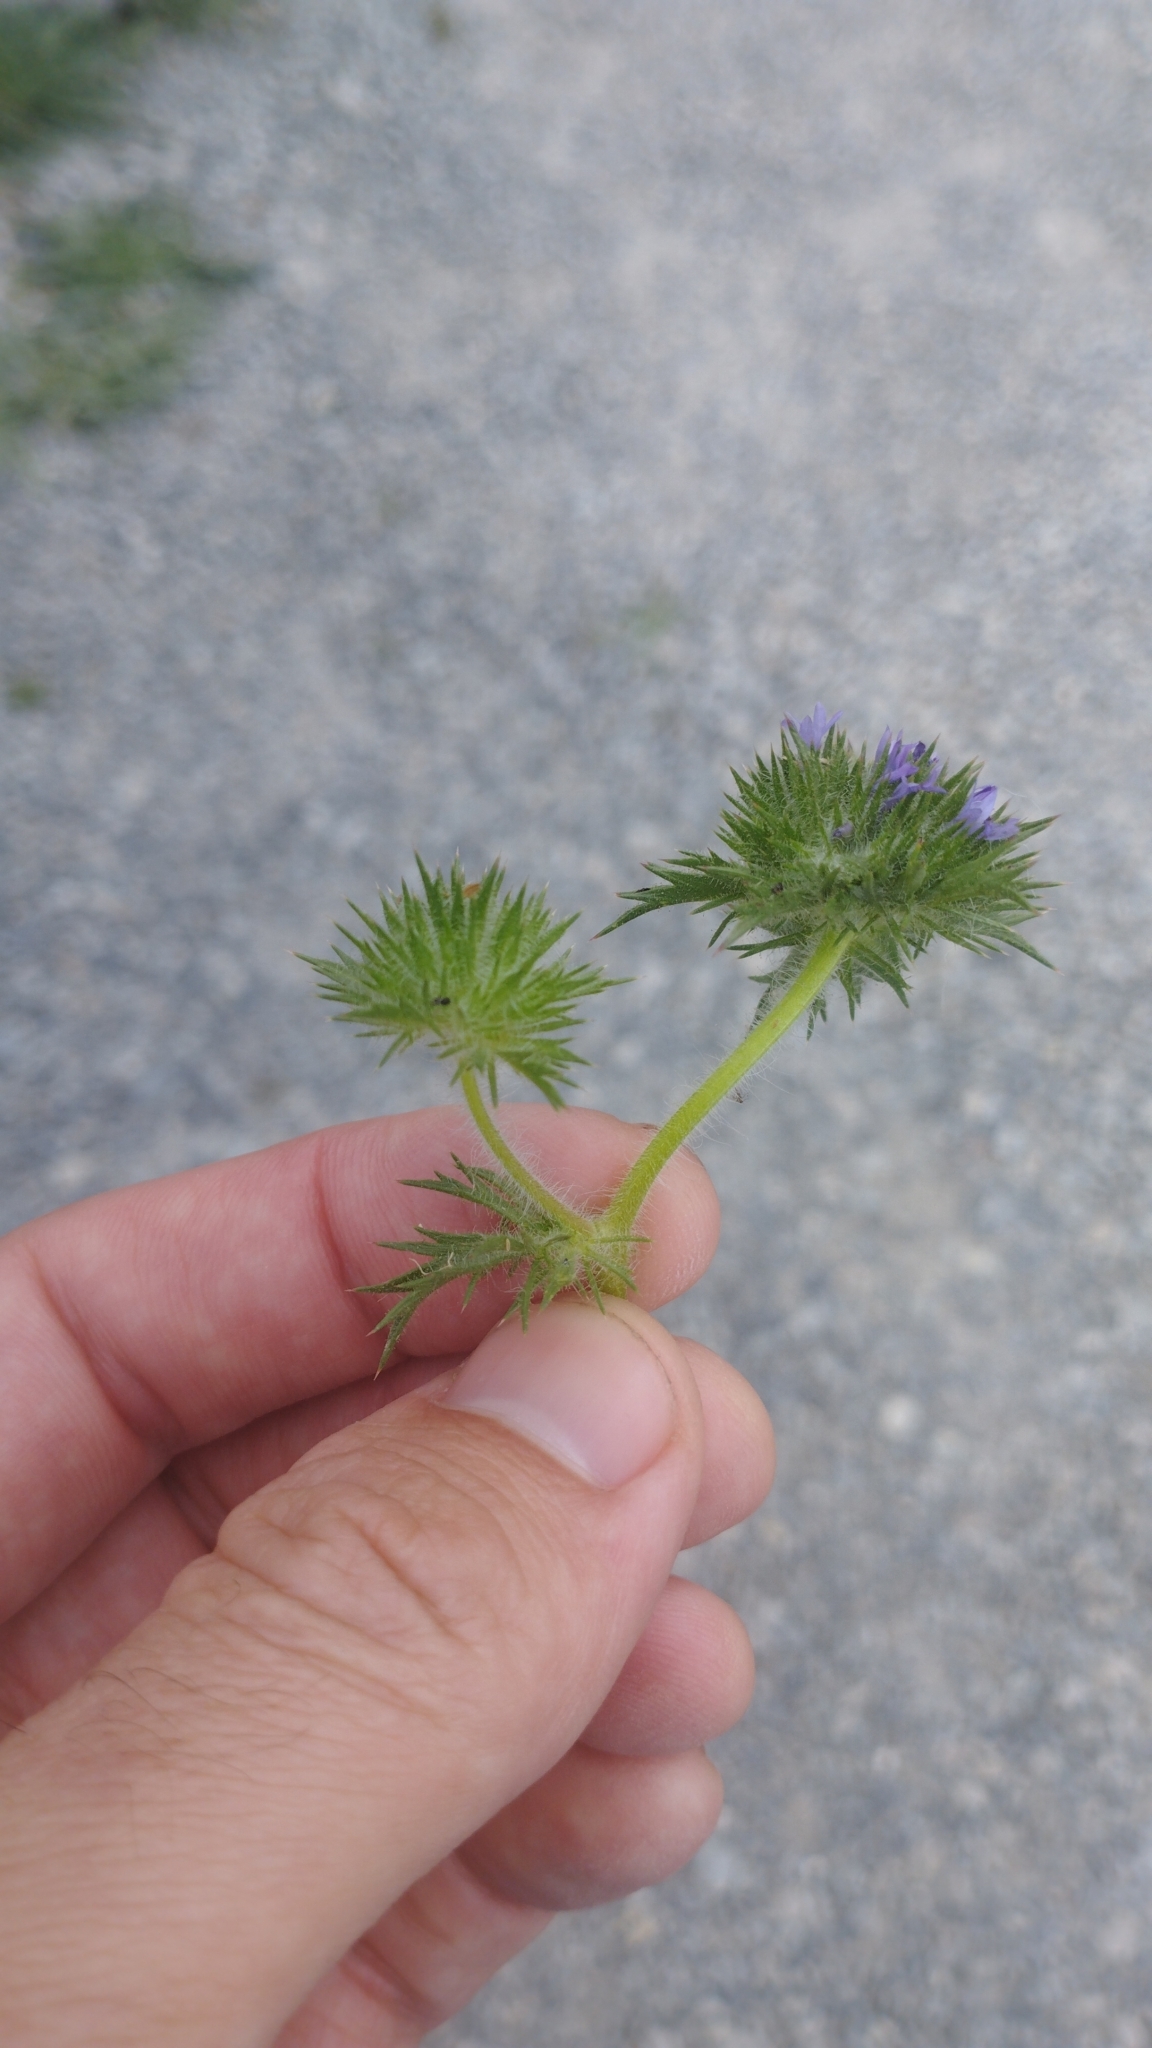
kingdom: Plantae
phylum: Tracheophyta
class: Magnoliopsida
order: Ericales
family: Polemoniaceae
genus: Navarretia
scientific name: Navarretia squarrosa
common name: Skunkweed
